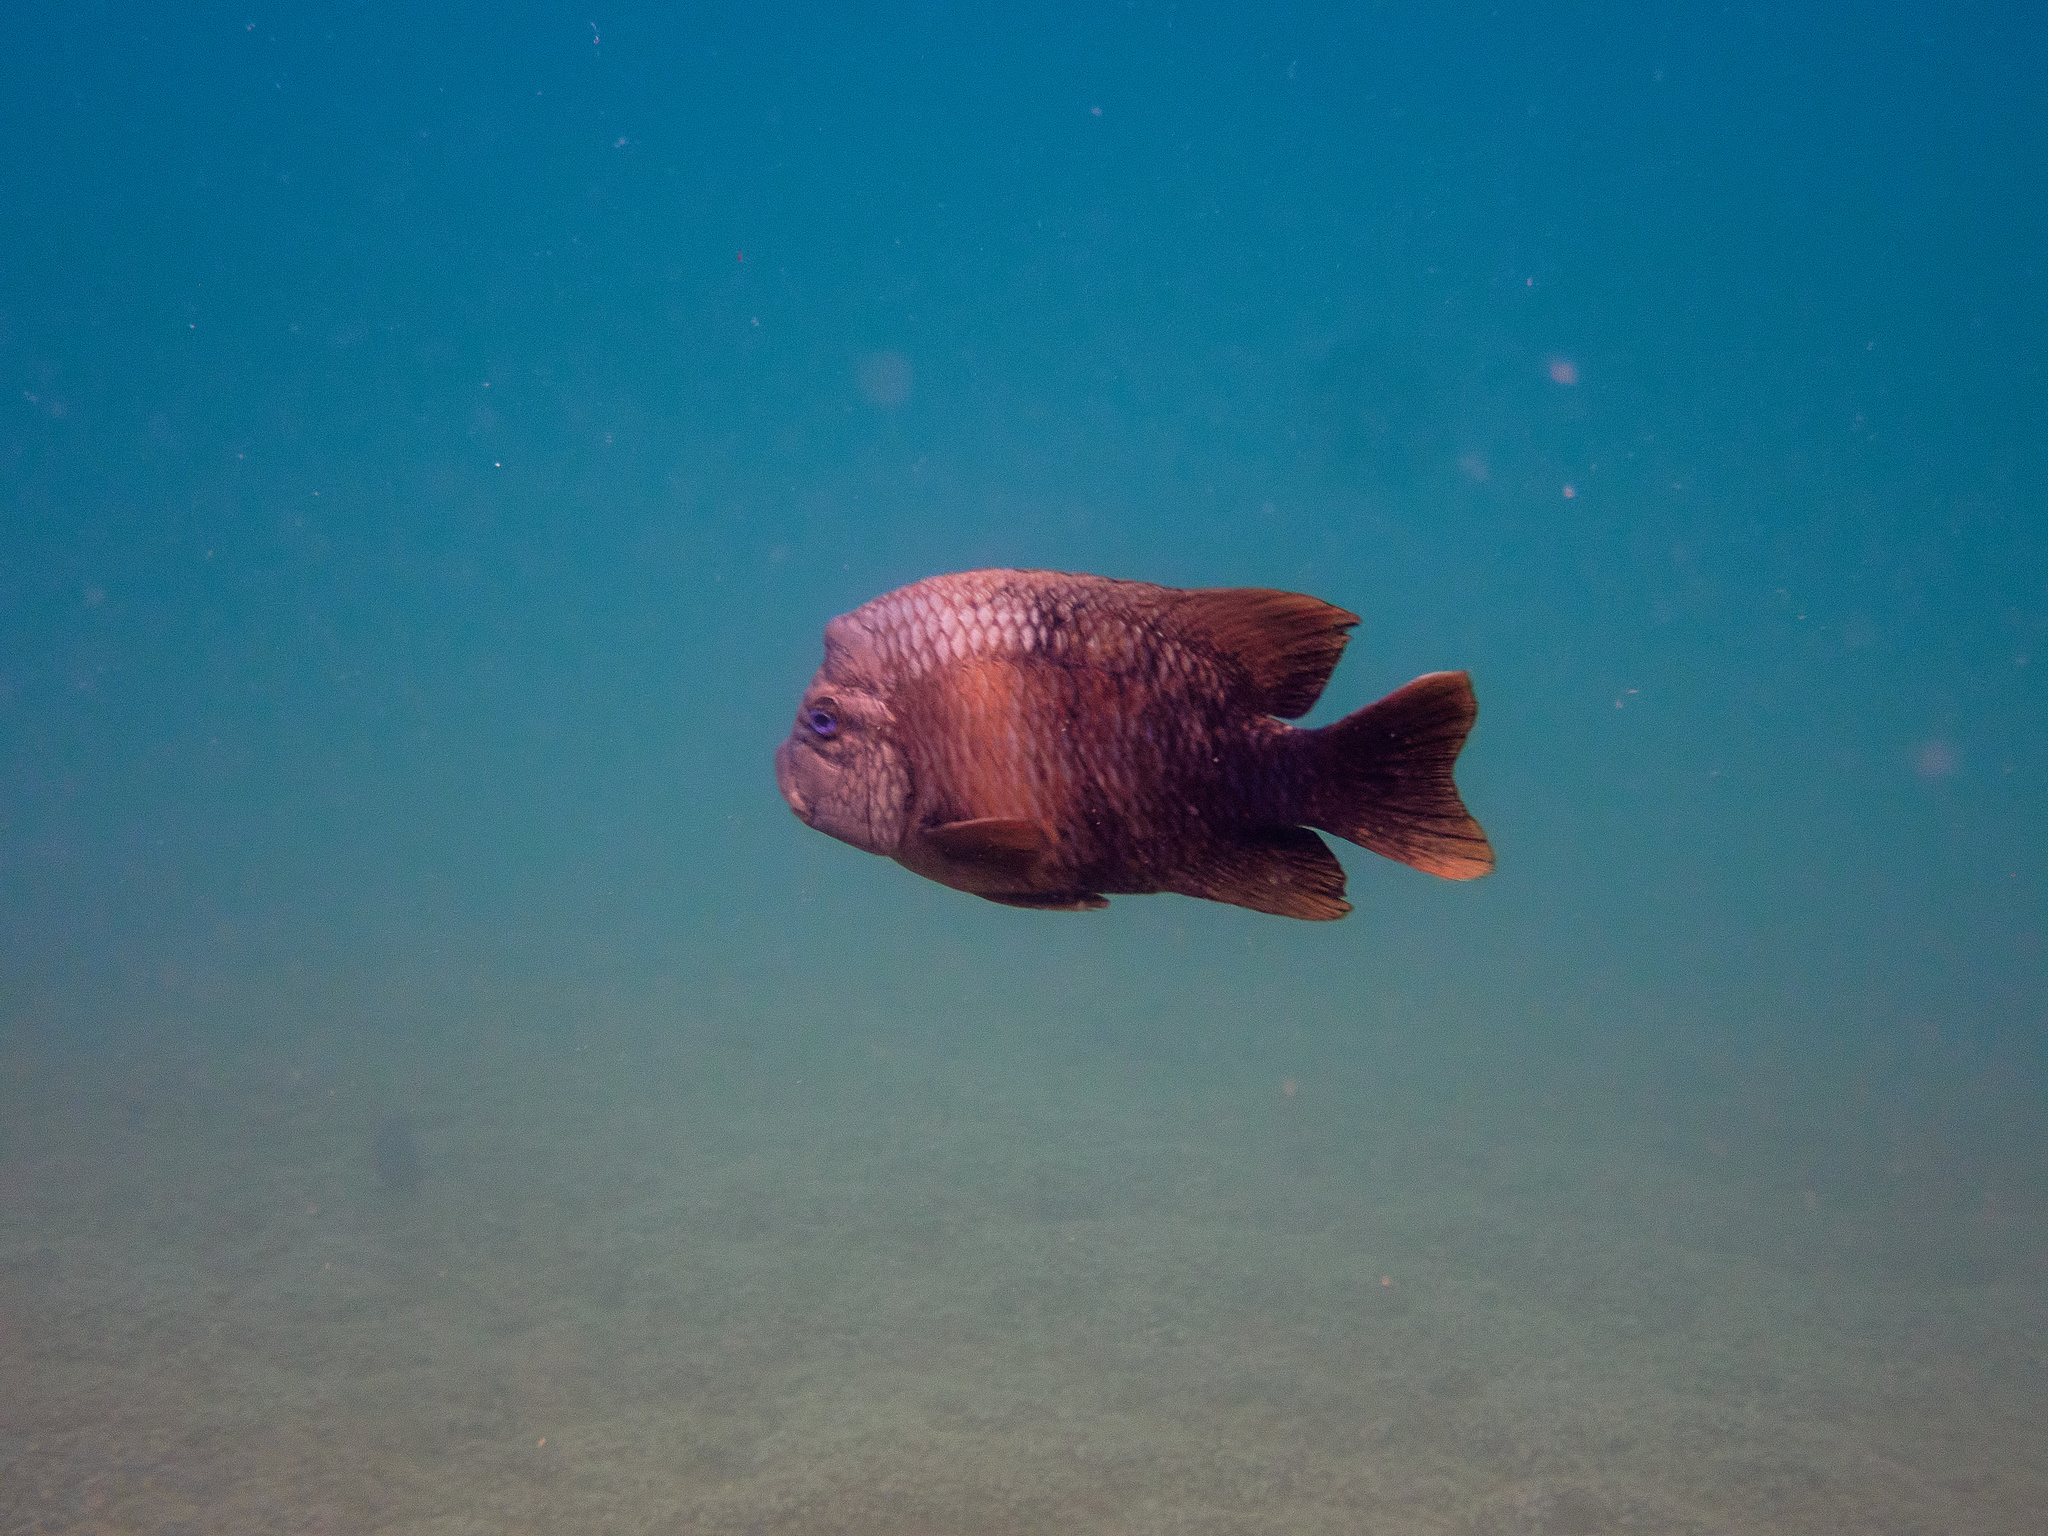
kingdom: Animalia
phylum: Chordata
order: Perciformes
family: Pomacentridae
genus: Microspathodon
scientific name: Microspathodon bairdii
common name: Bumphead damselfish
